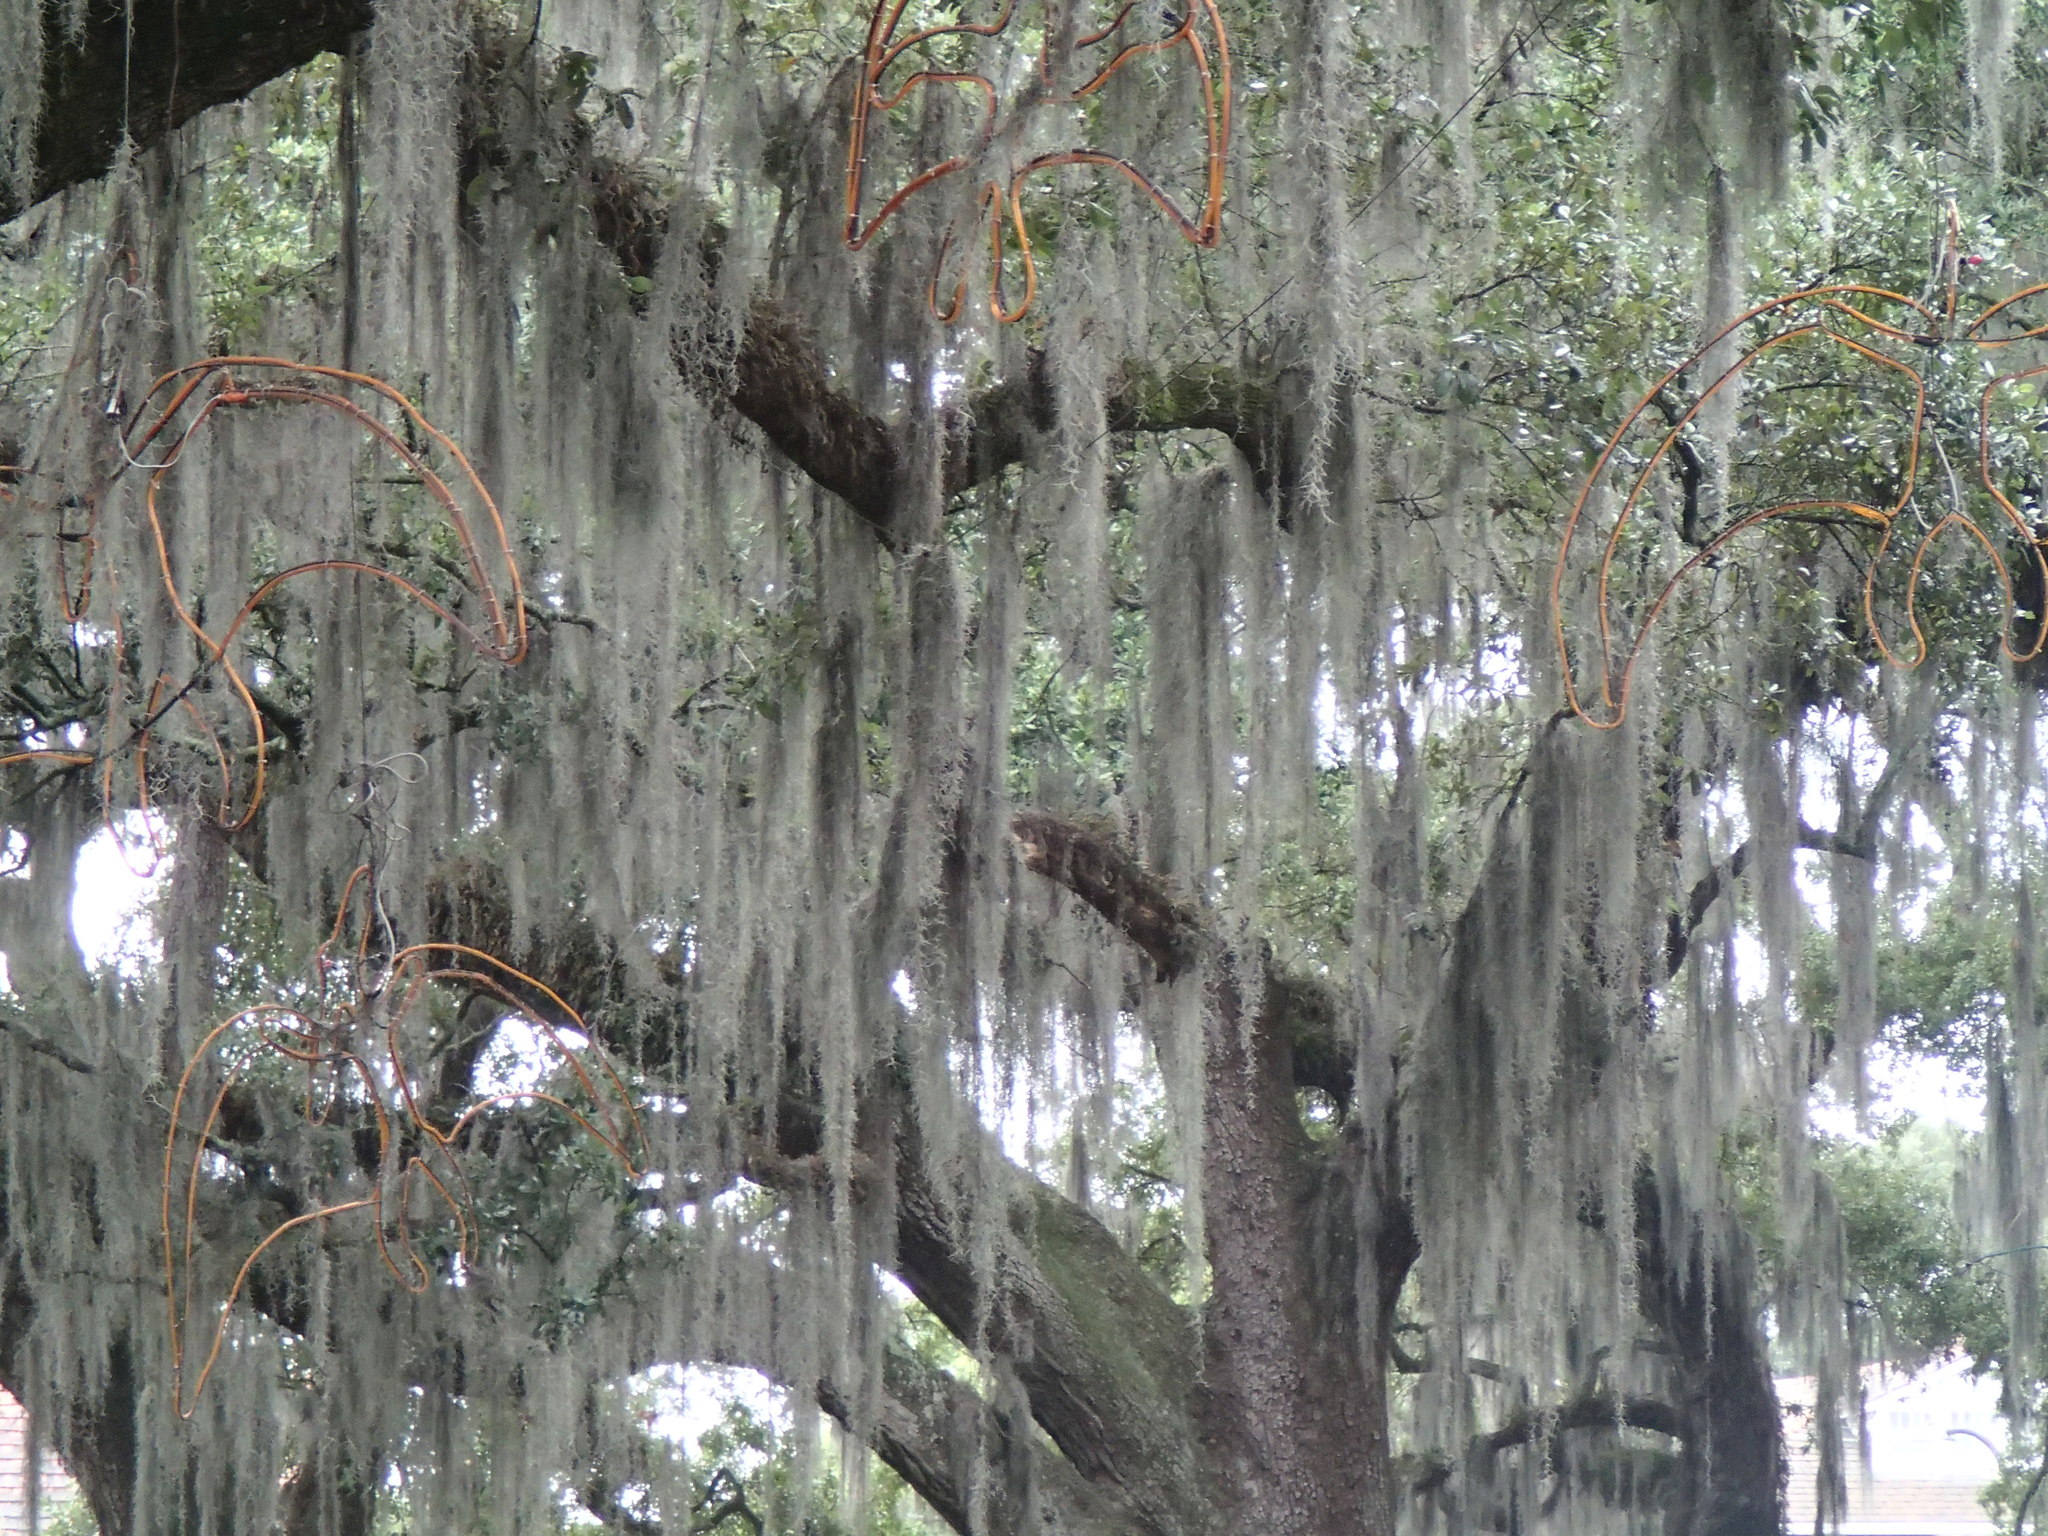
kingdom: Plantae
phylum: Tracheophyta
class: Liliopsida
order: Poales
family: Bromeliaceae
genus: Tillandsia
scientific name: Tillandsia usneoides
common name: Spanish moss
